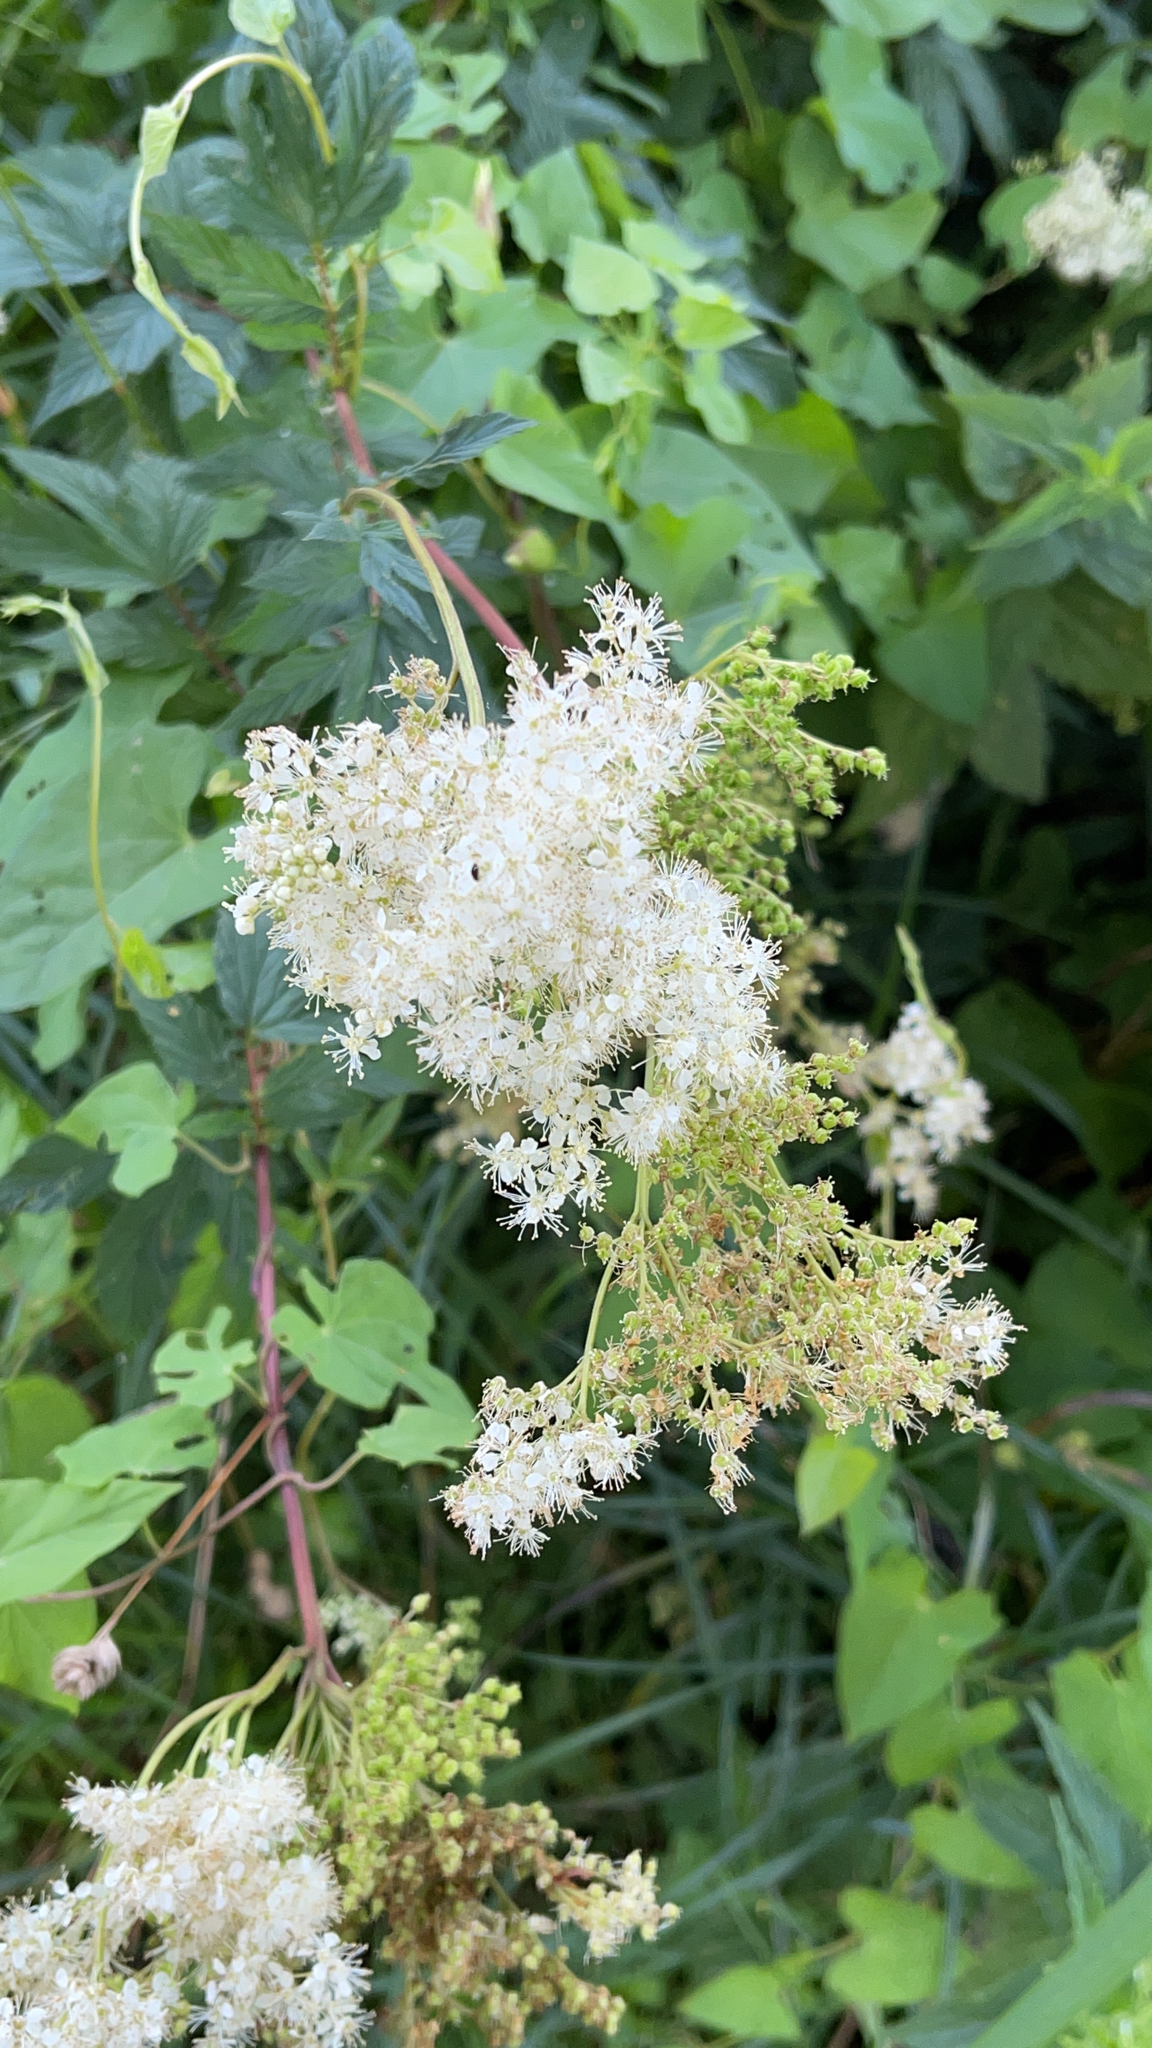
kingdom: Plantae
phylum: Tracheophyta
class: Magnoliopsida
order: Rosales
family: Rosaceae
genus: Filipendula
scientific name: Filipendula ulmaria
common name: Meadowsweet
